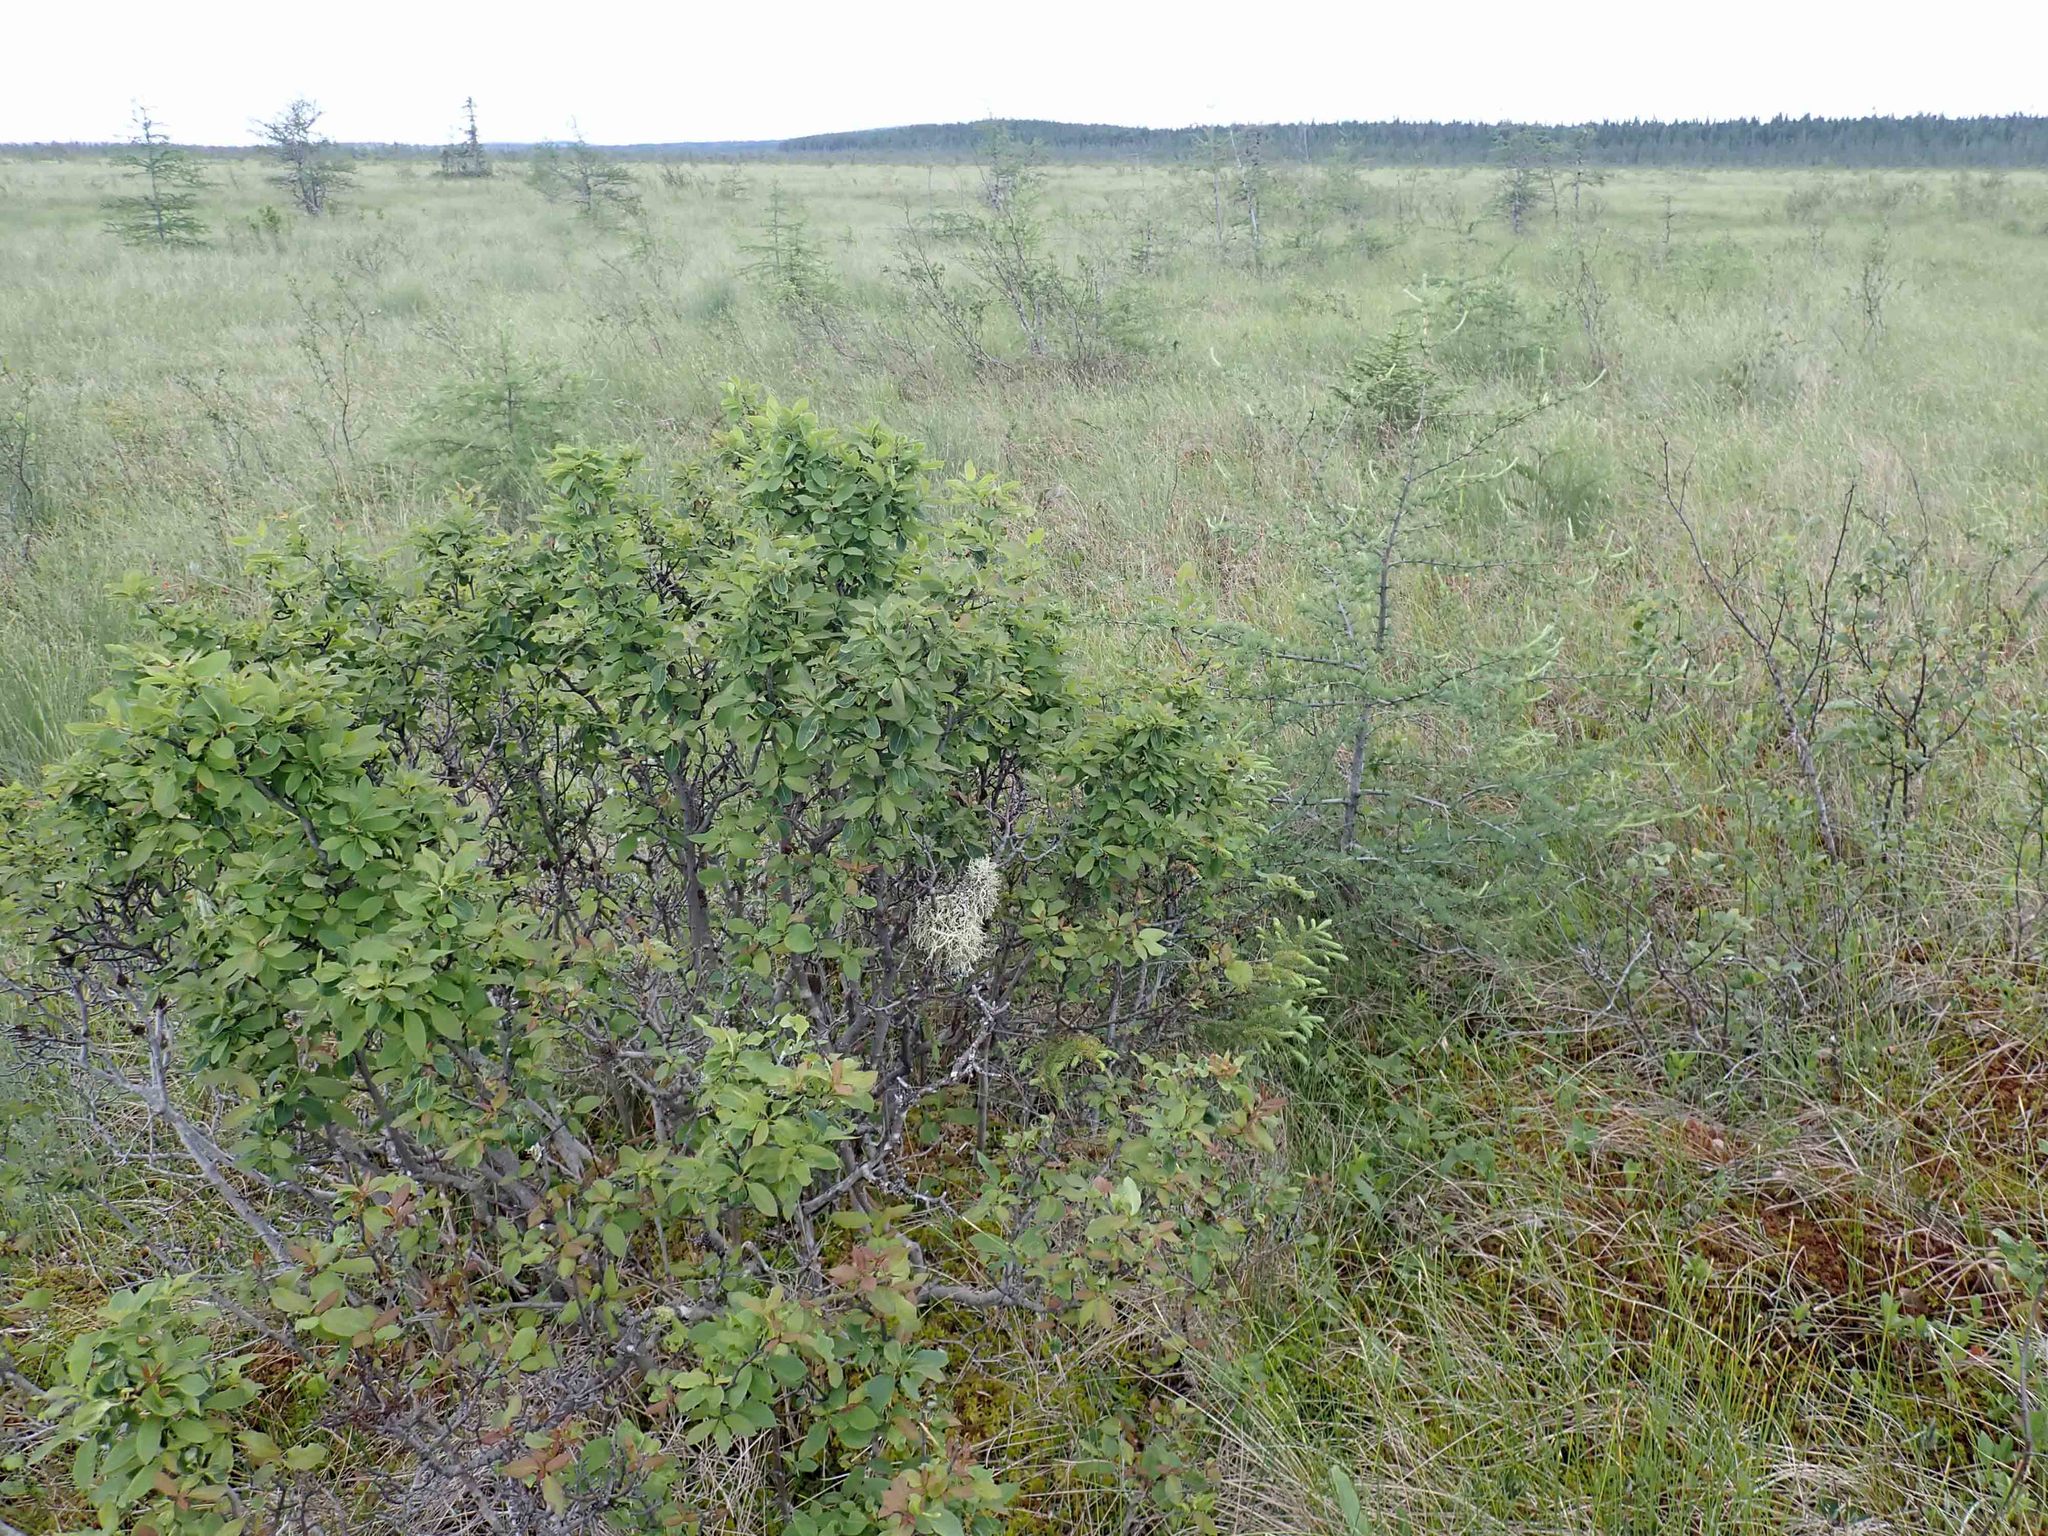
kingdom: Plantae
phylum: Tracheophyta
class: Magnoliopsida
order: Aquifoliales
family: Aquifoliaceae
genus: Ilex
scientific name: Ilex mucronata
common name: Catberry
